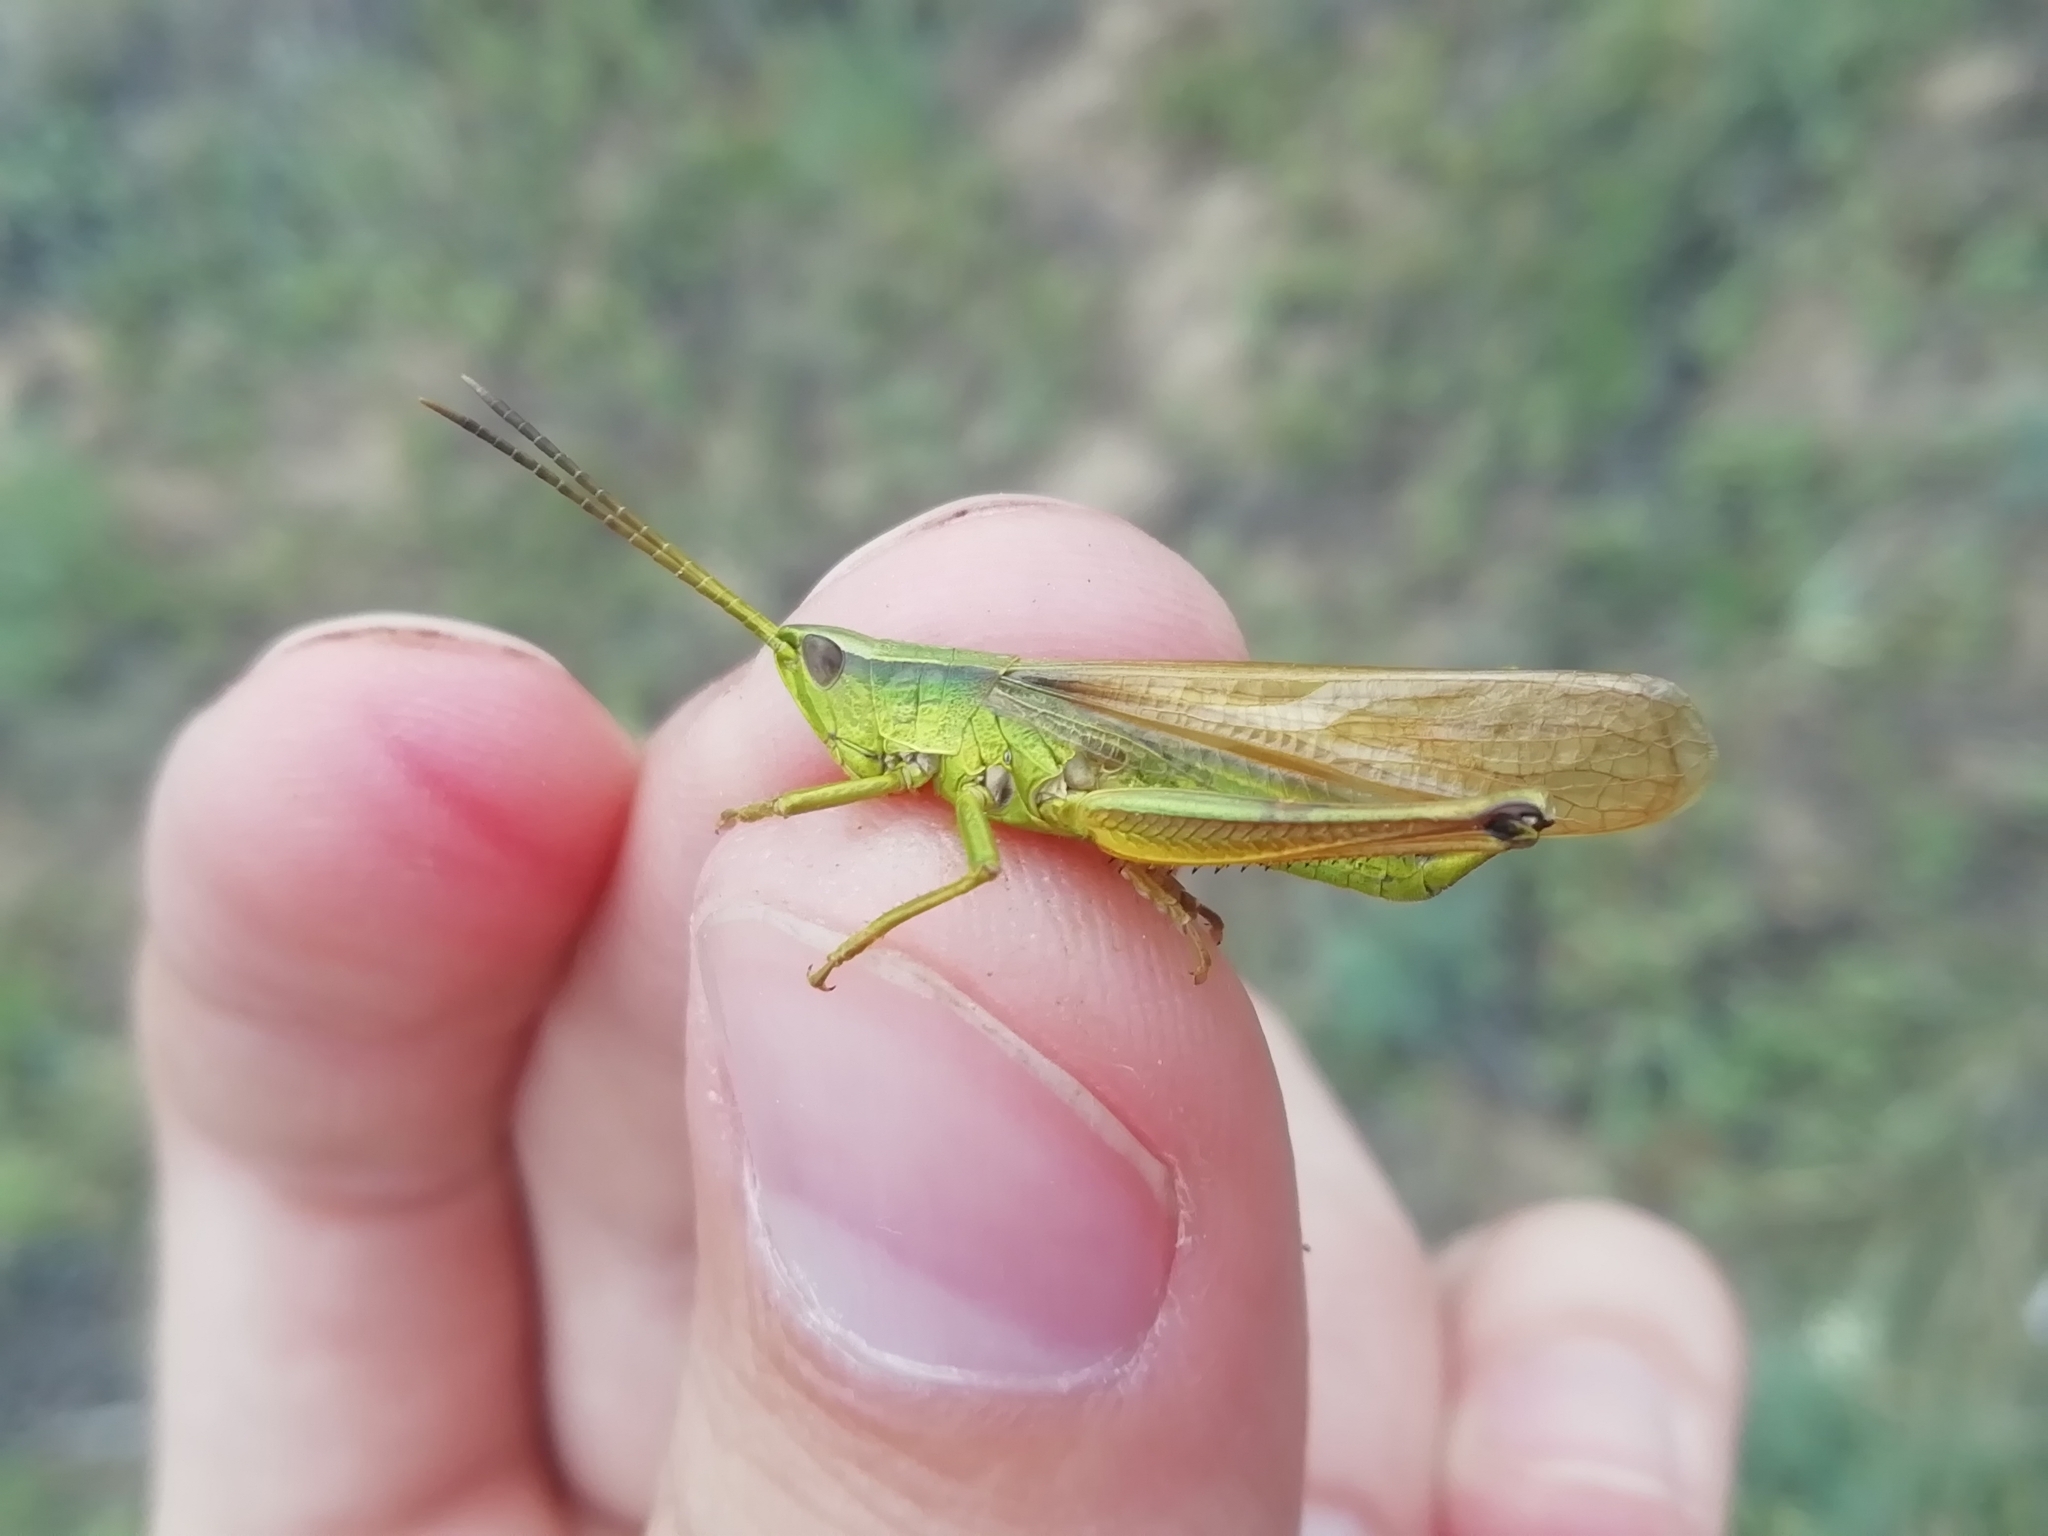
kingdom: Animalia
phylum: Arthropoda
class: Insecta
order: Orthoptera
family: Acrididae
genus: Chrysochraon
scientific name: Chrysochraon dispar
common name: Large gold grasshopper
